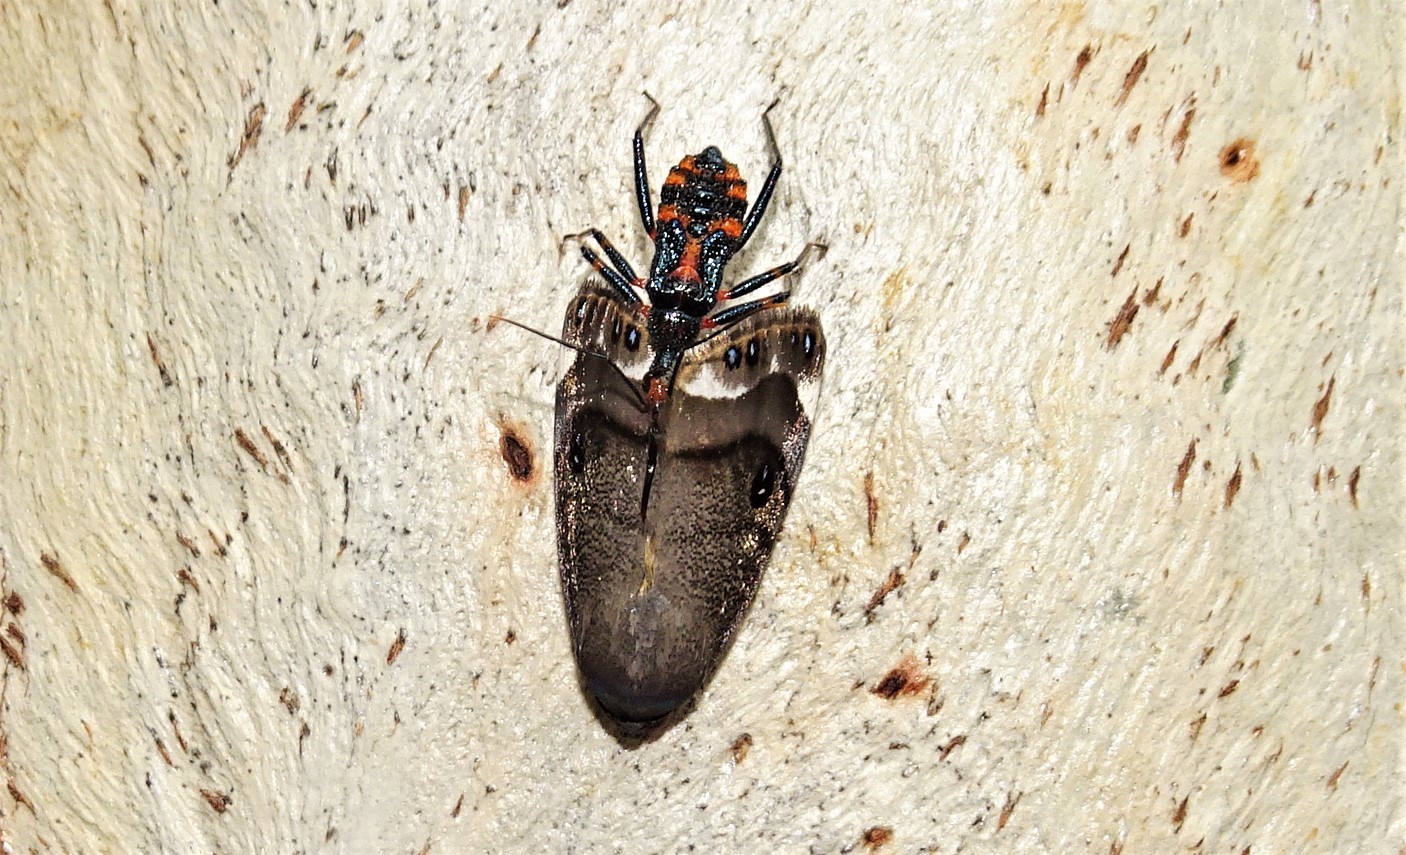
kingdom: Animalia
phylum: Arthropoda
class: Insecta
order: Hemiptera
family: Reduviidae
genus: Havinthus
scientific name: Havinthus rufovarius
